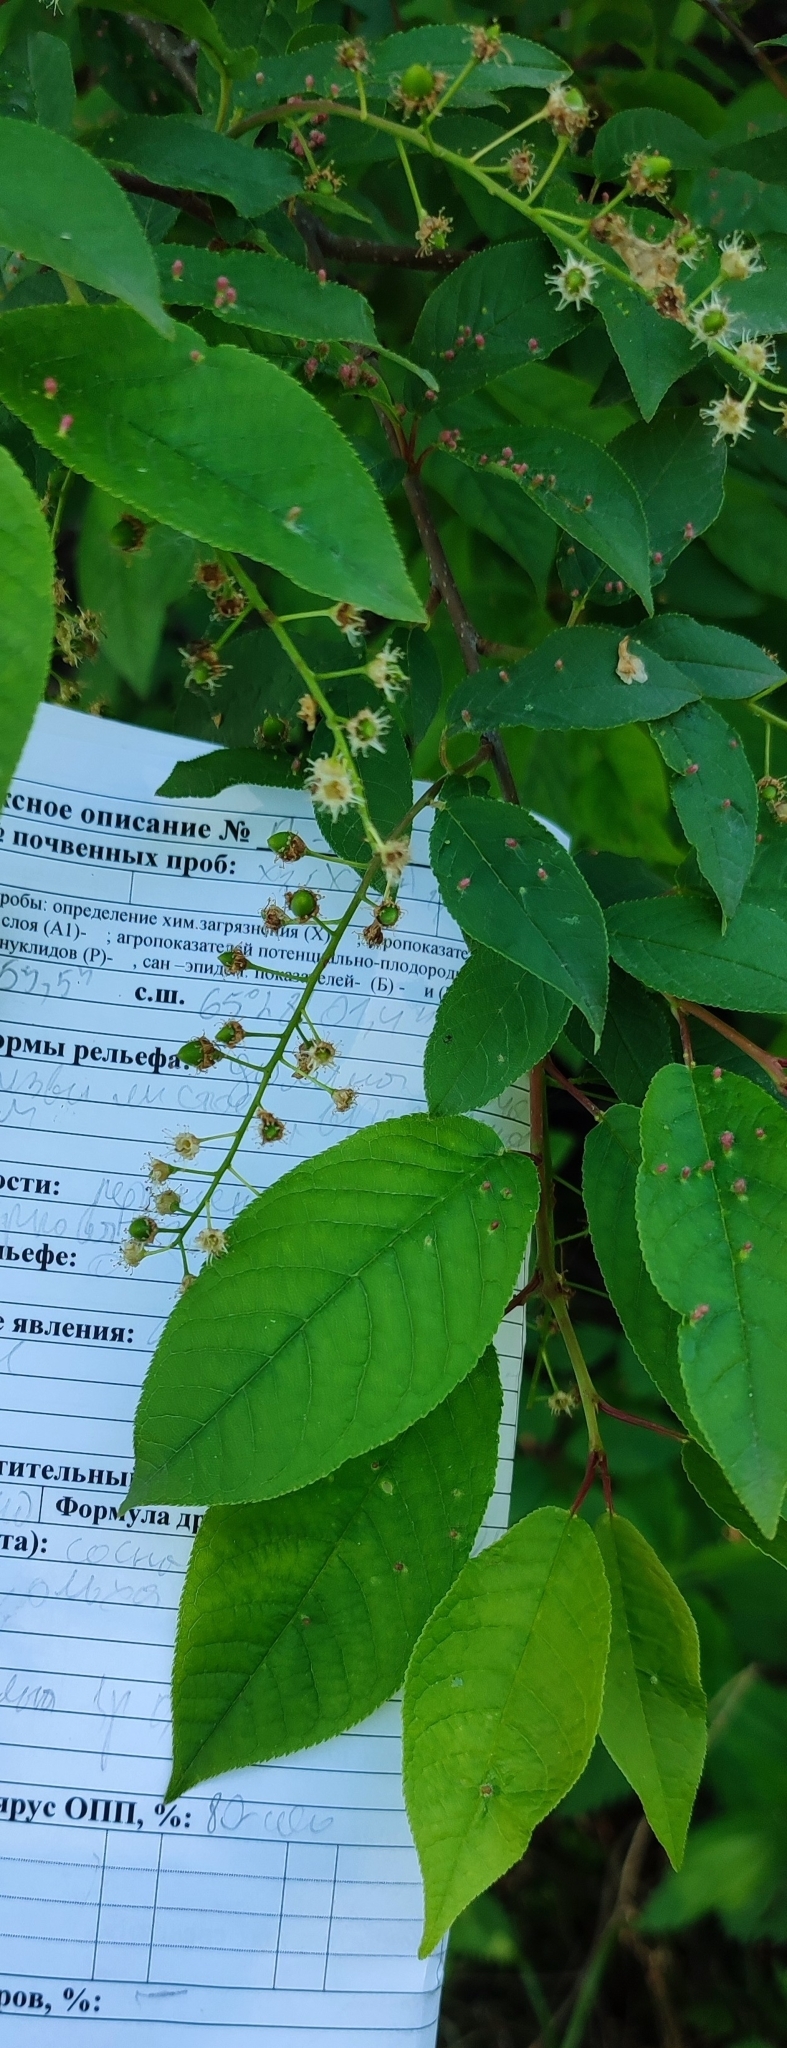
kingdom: Plantae
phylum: Tracheophyta
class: Magnoliopsida
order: Rosales
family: Rosaceae
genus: Prunus
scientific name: Prunus padus
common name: Bird cherry
